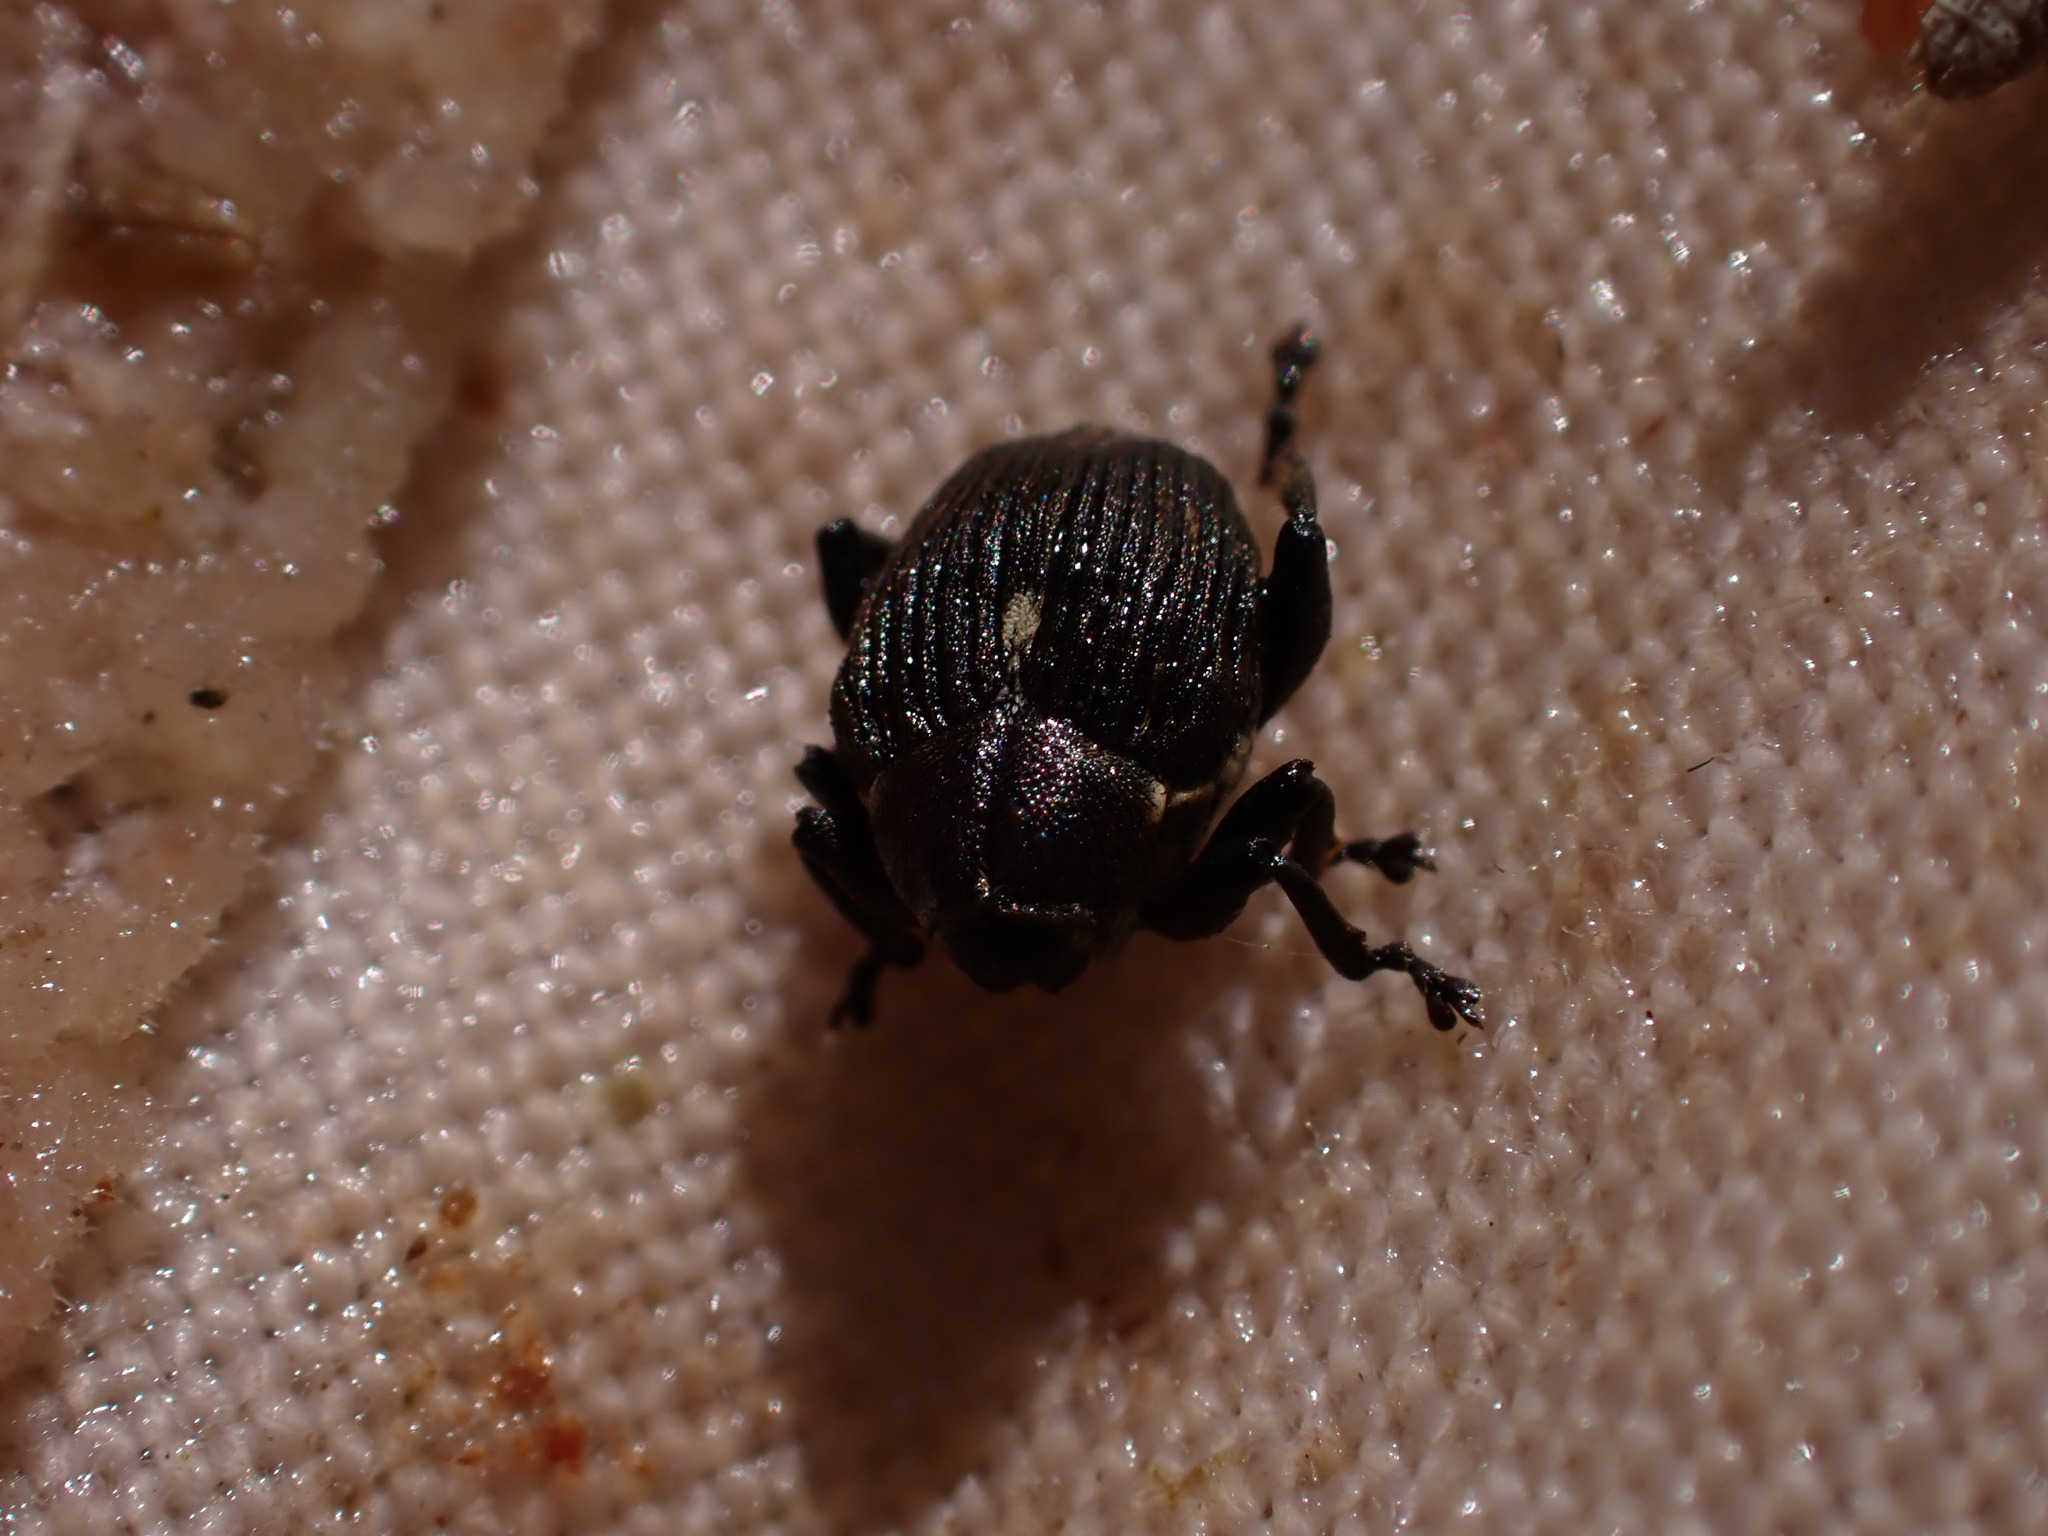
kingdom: Animalia
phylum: Arthropoda
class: Insecta
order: Coleoptera
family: Curculionidae
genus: Mononychus
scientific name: Mononychus punctumalbum
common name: Iris weevil
